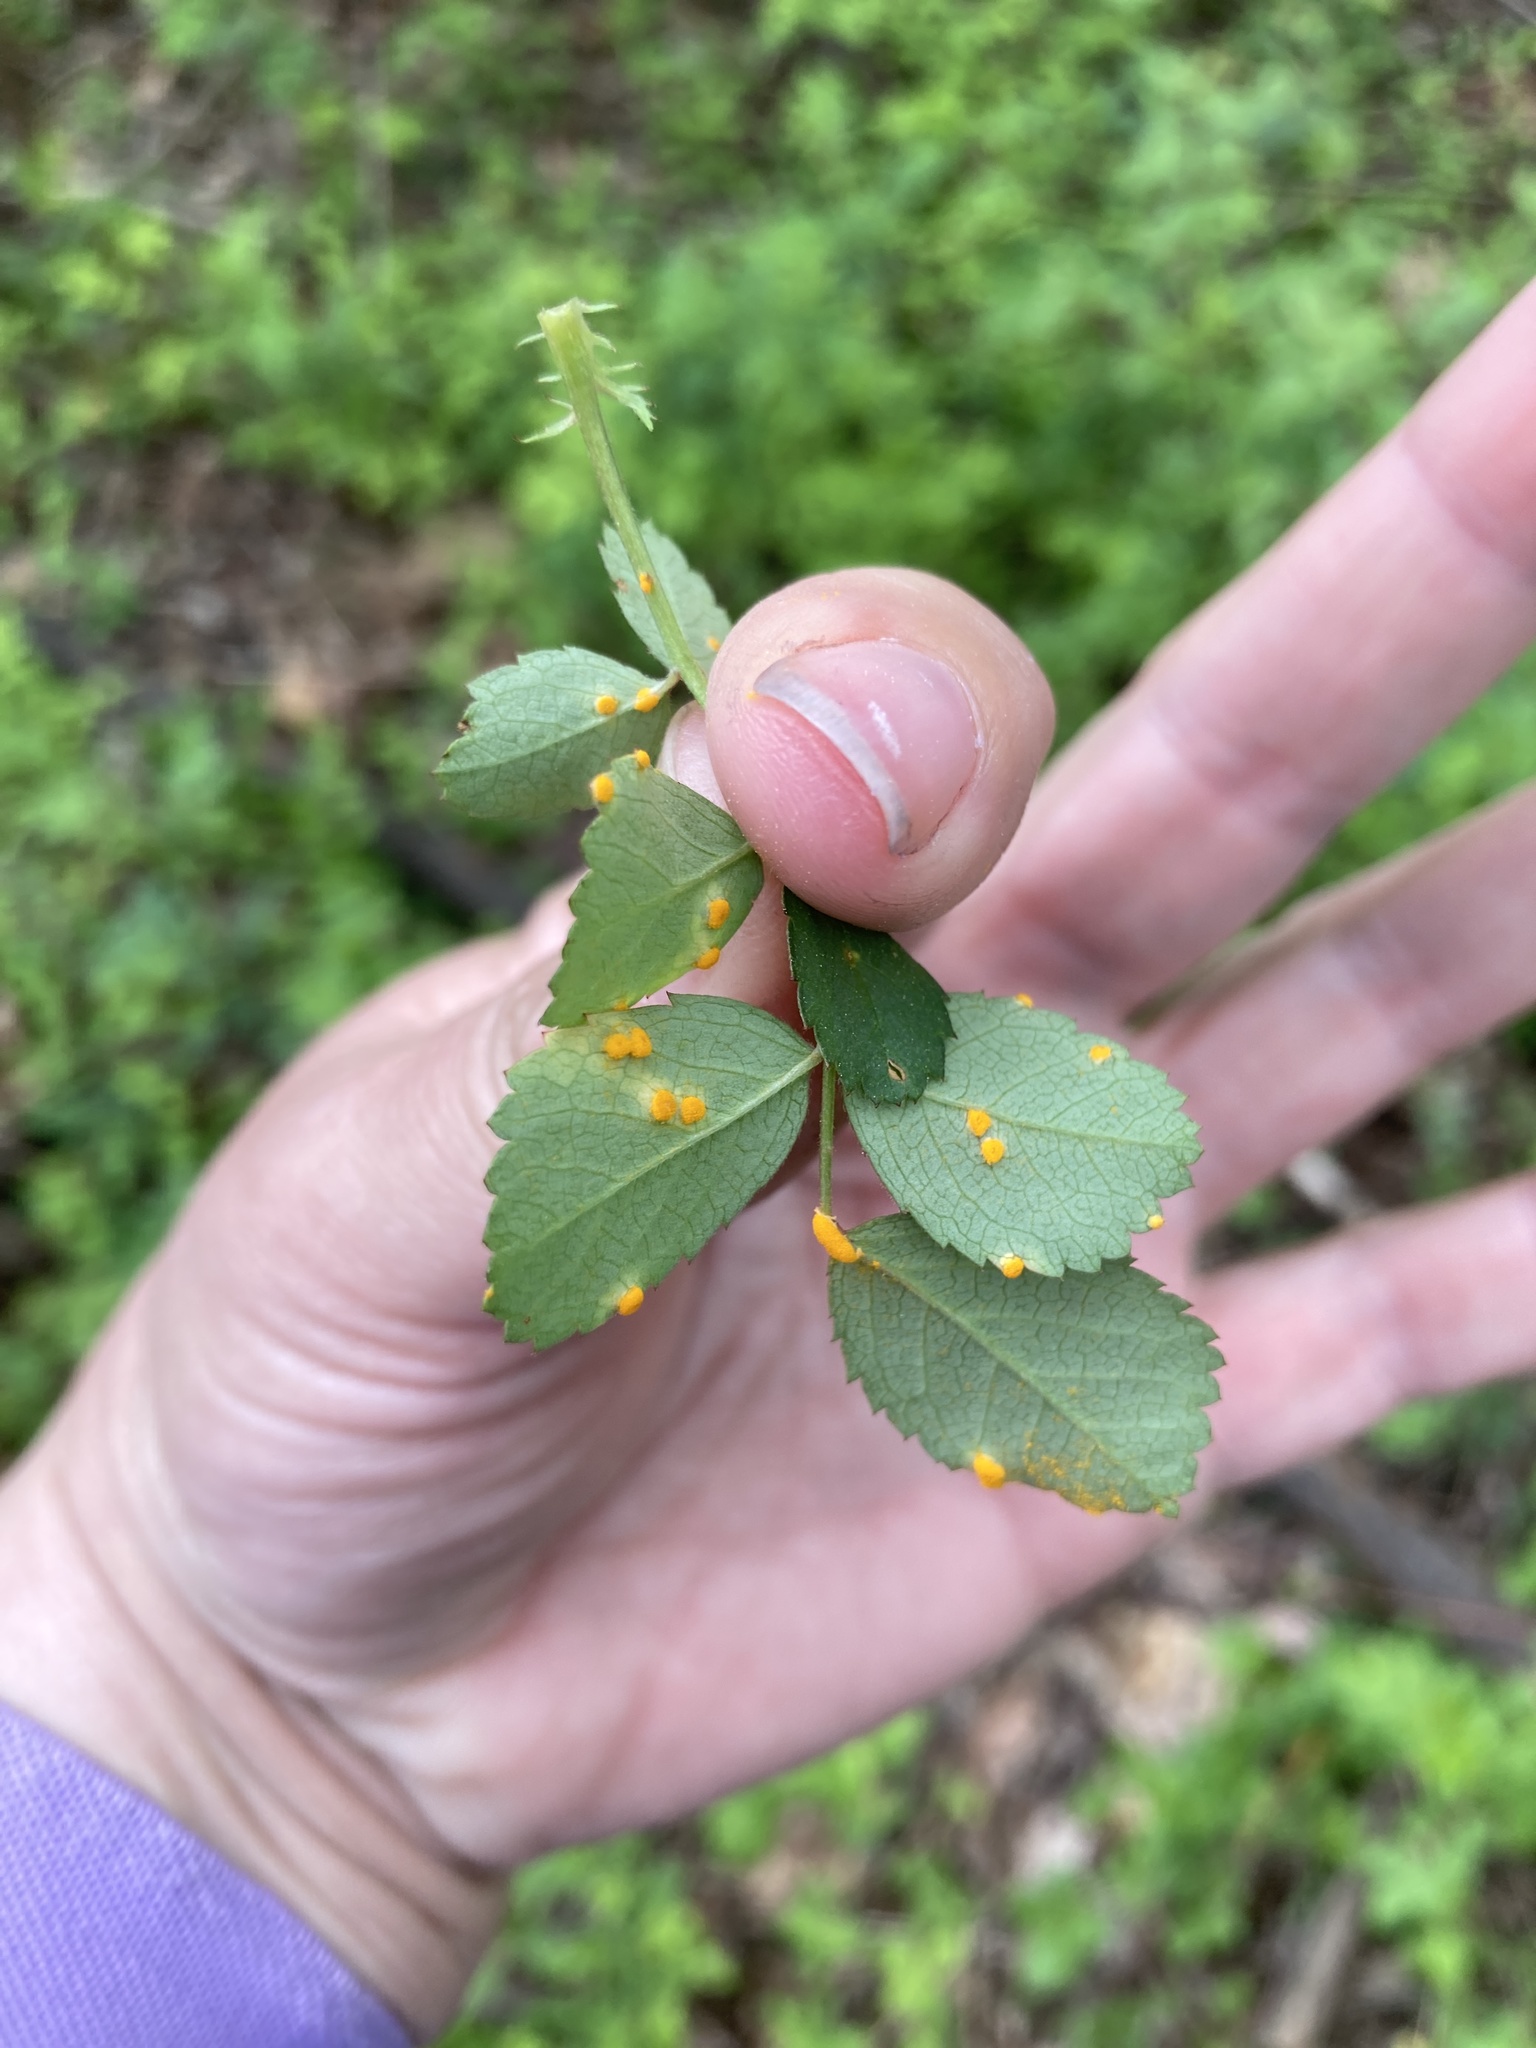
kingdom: Fungi
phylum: Basidiomycota
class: Pucciniomycetes
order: Pucciniales
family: Phragmidiaceae
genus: Phragmidium
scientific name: Phragmidium rosae-multiflorae
